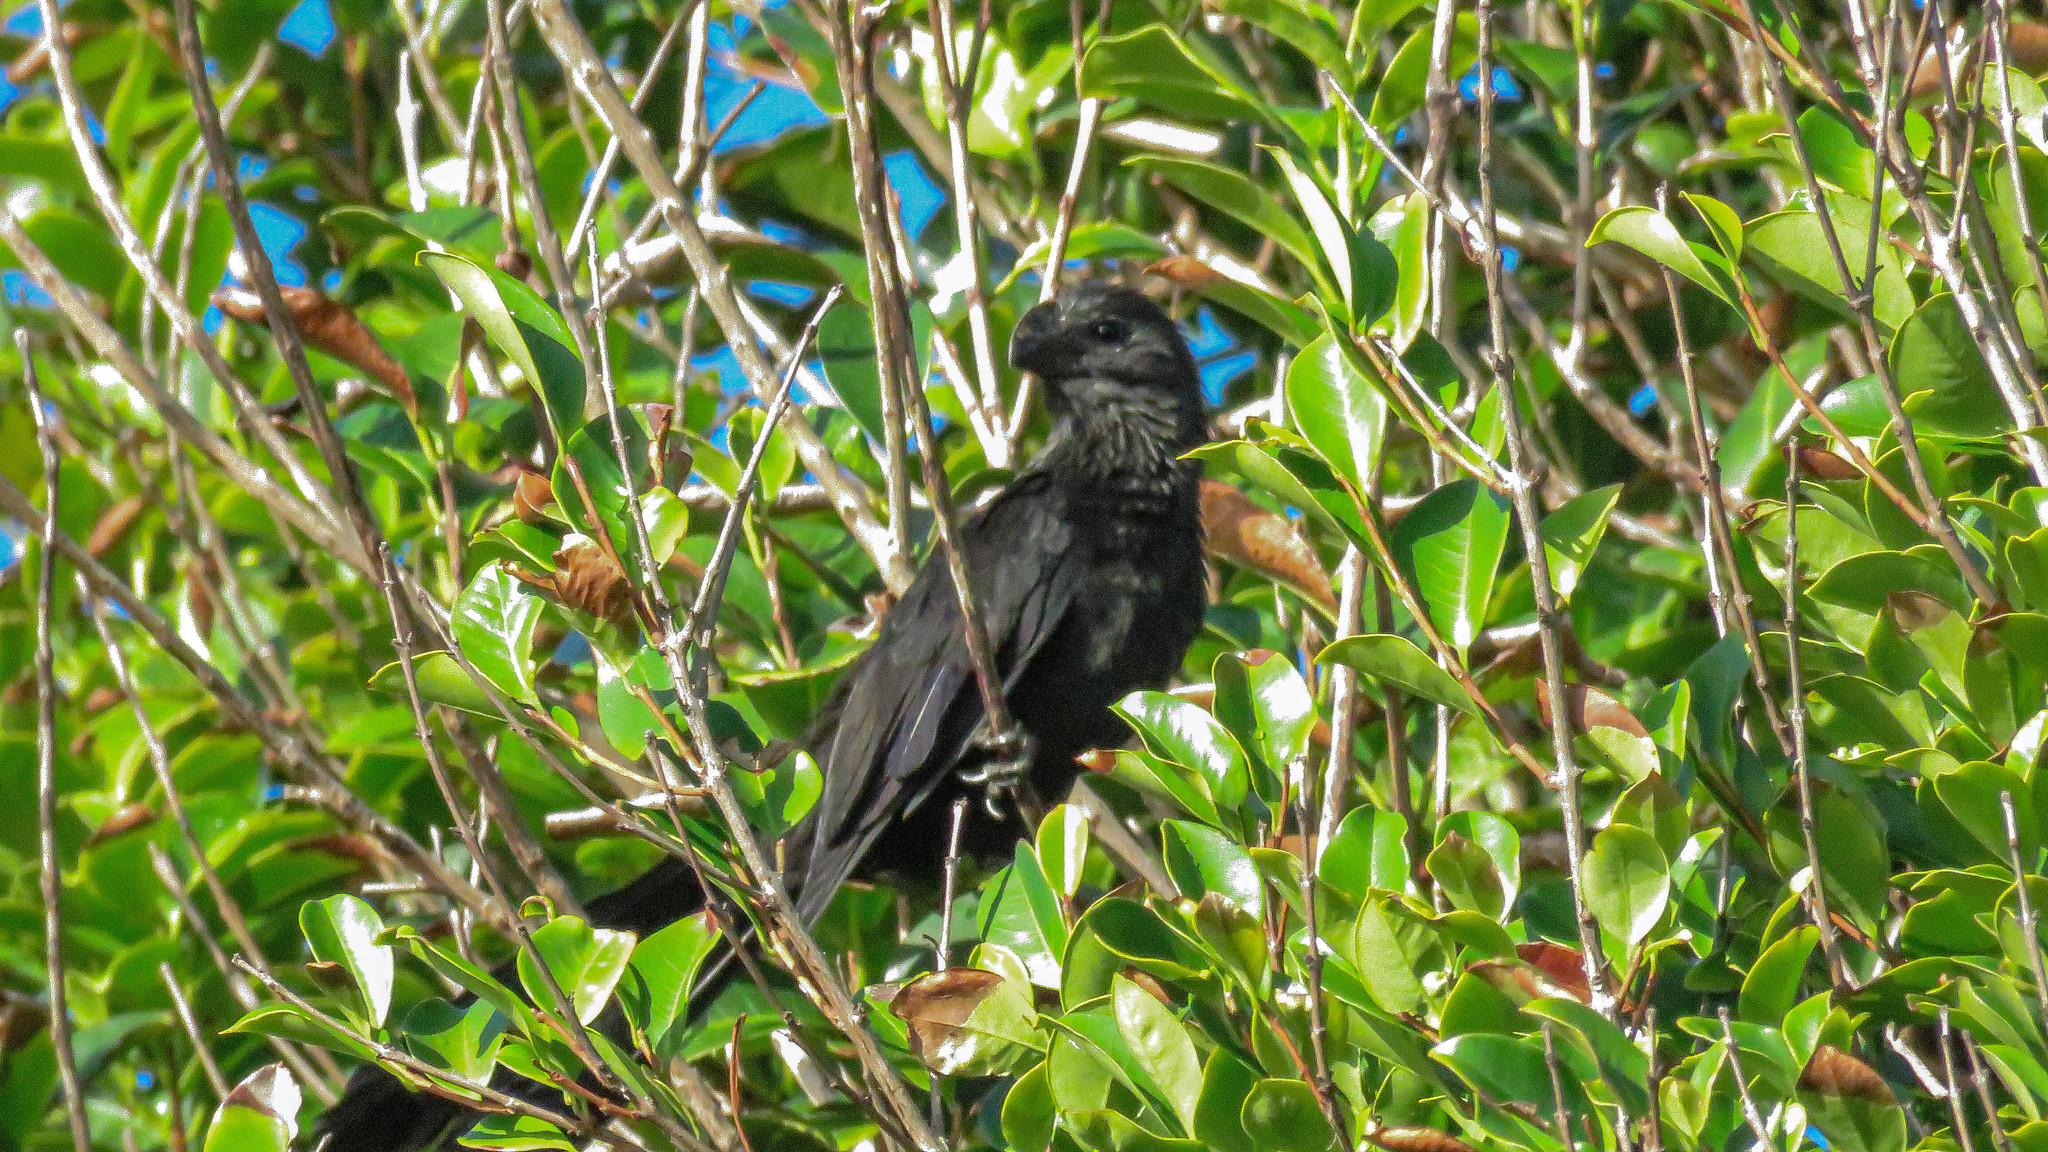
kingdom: Animalia
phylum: Chordata
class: Aves
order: Cuculiformes
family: Cuculidae
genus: Crotophaga
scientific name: Crotophaga ani
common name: Smooth-billed ani
